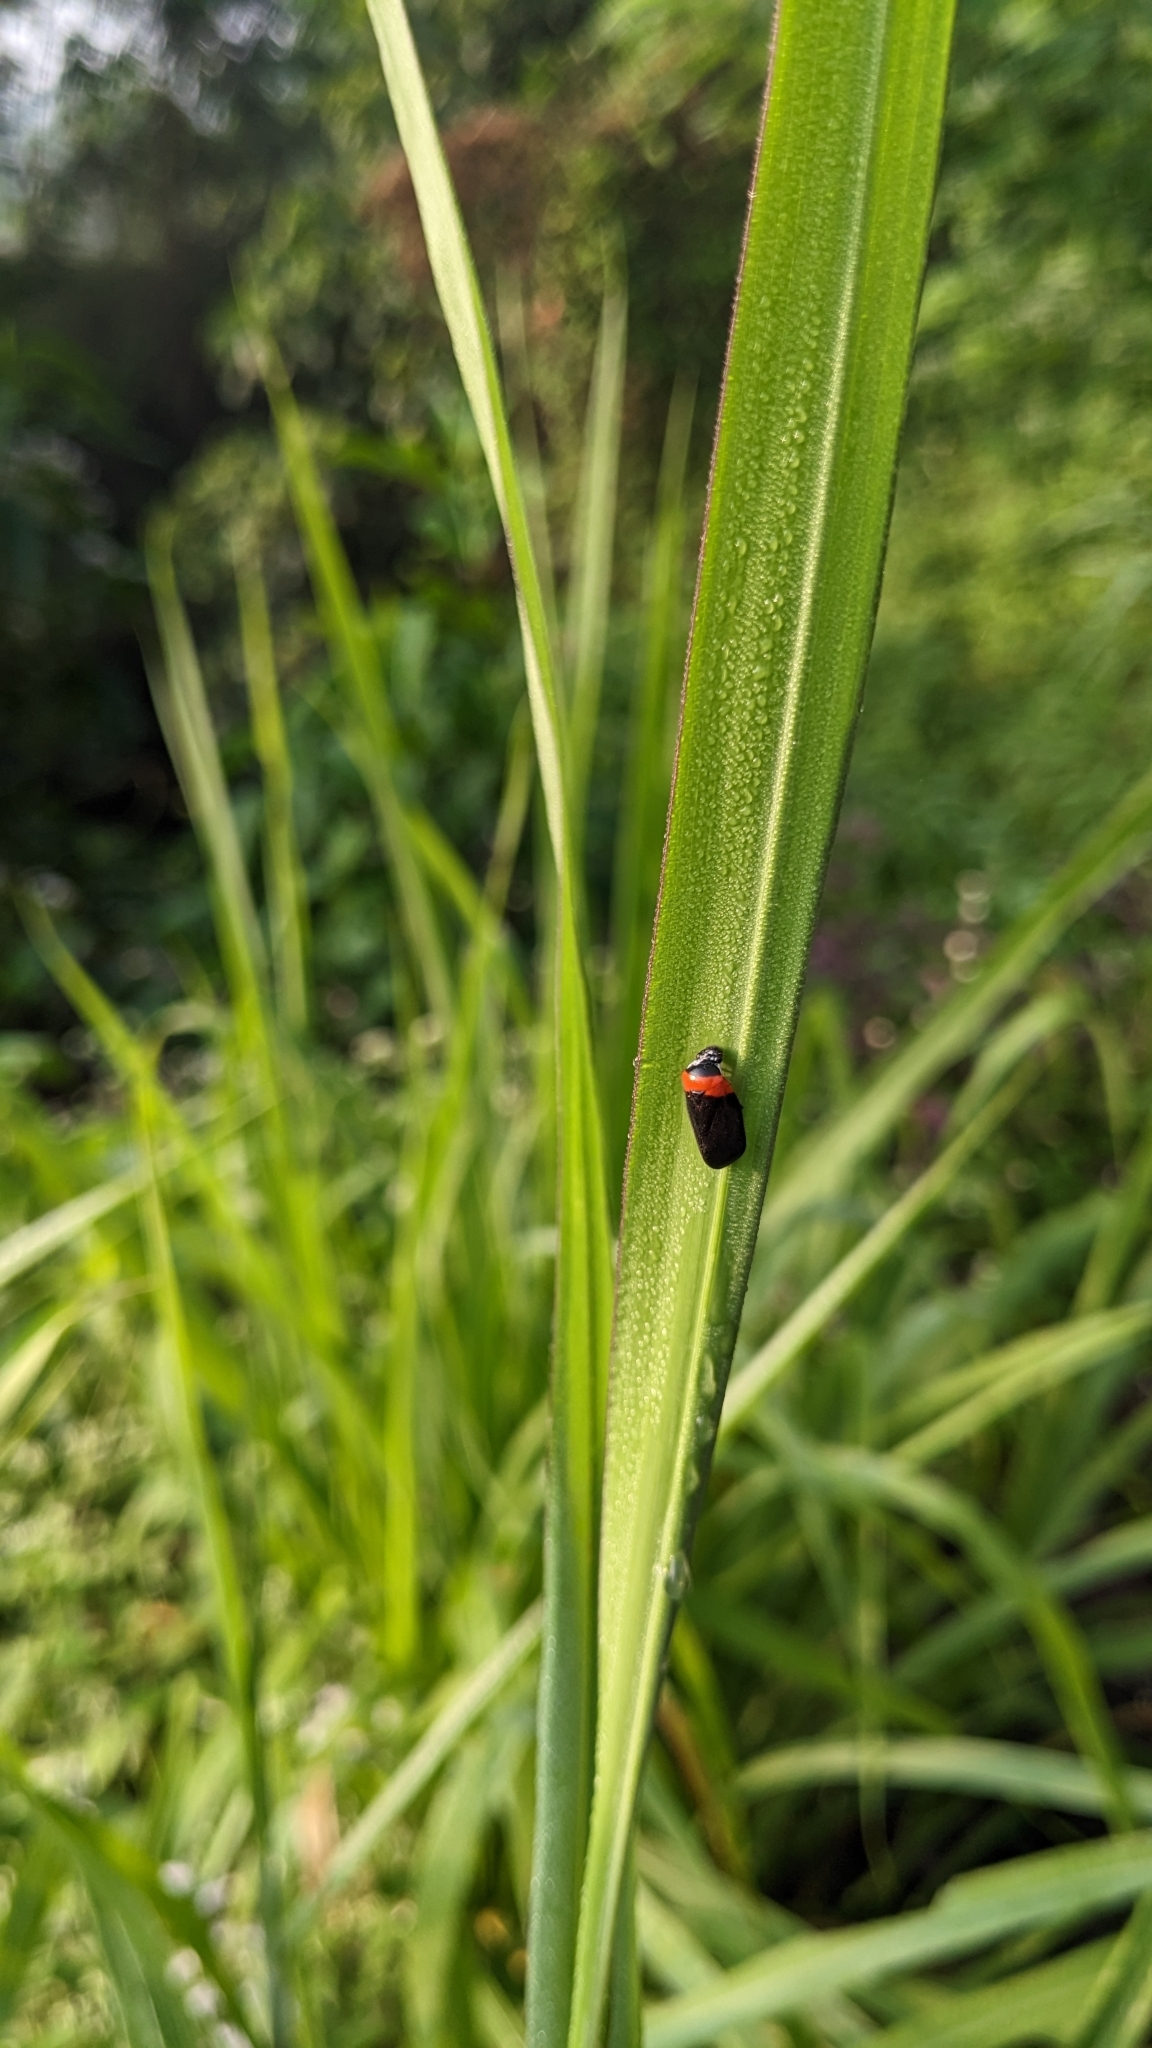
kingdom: Animalia
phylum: Arthropoda
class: Insecta
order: Hemiptera
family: Cercopidae
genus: Phymatostetha
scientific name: Phymatostetha deschampsi
